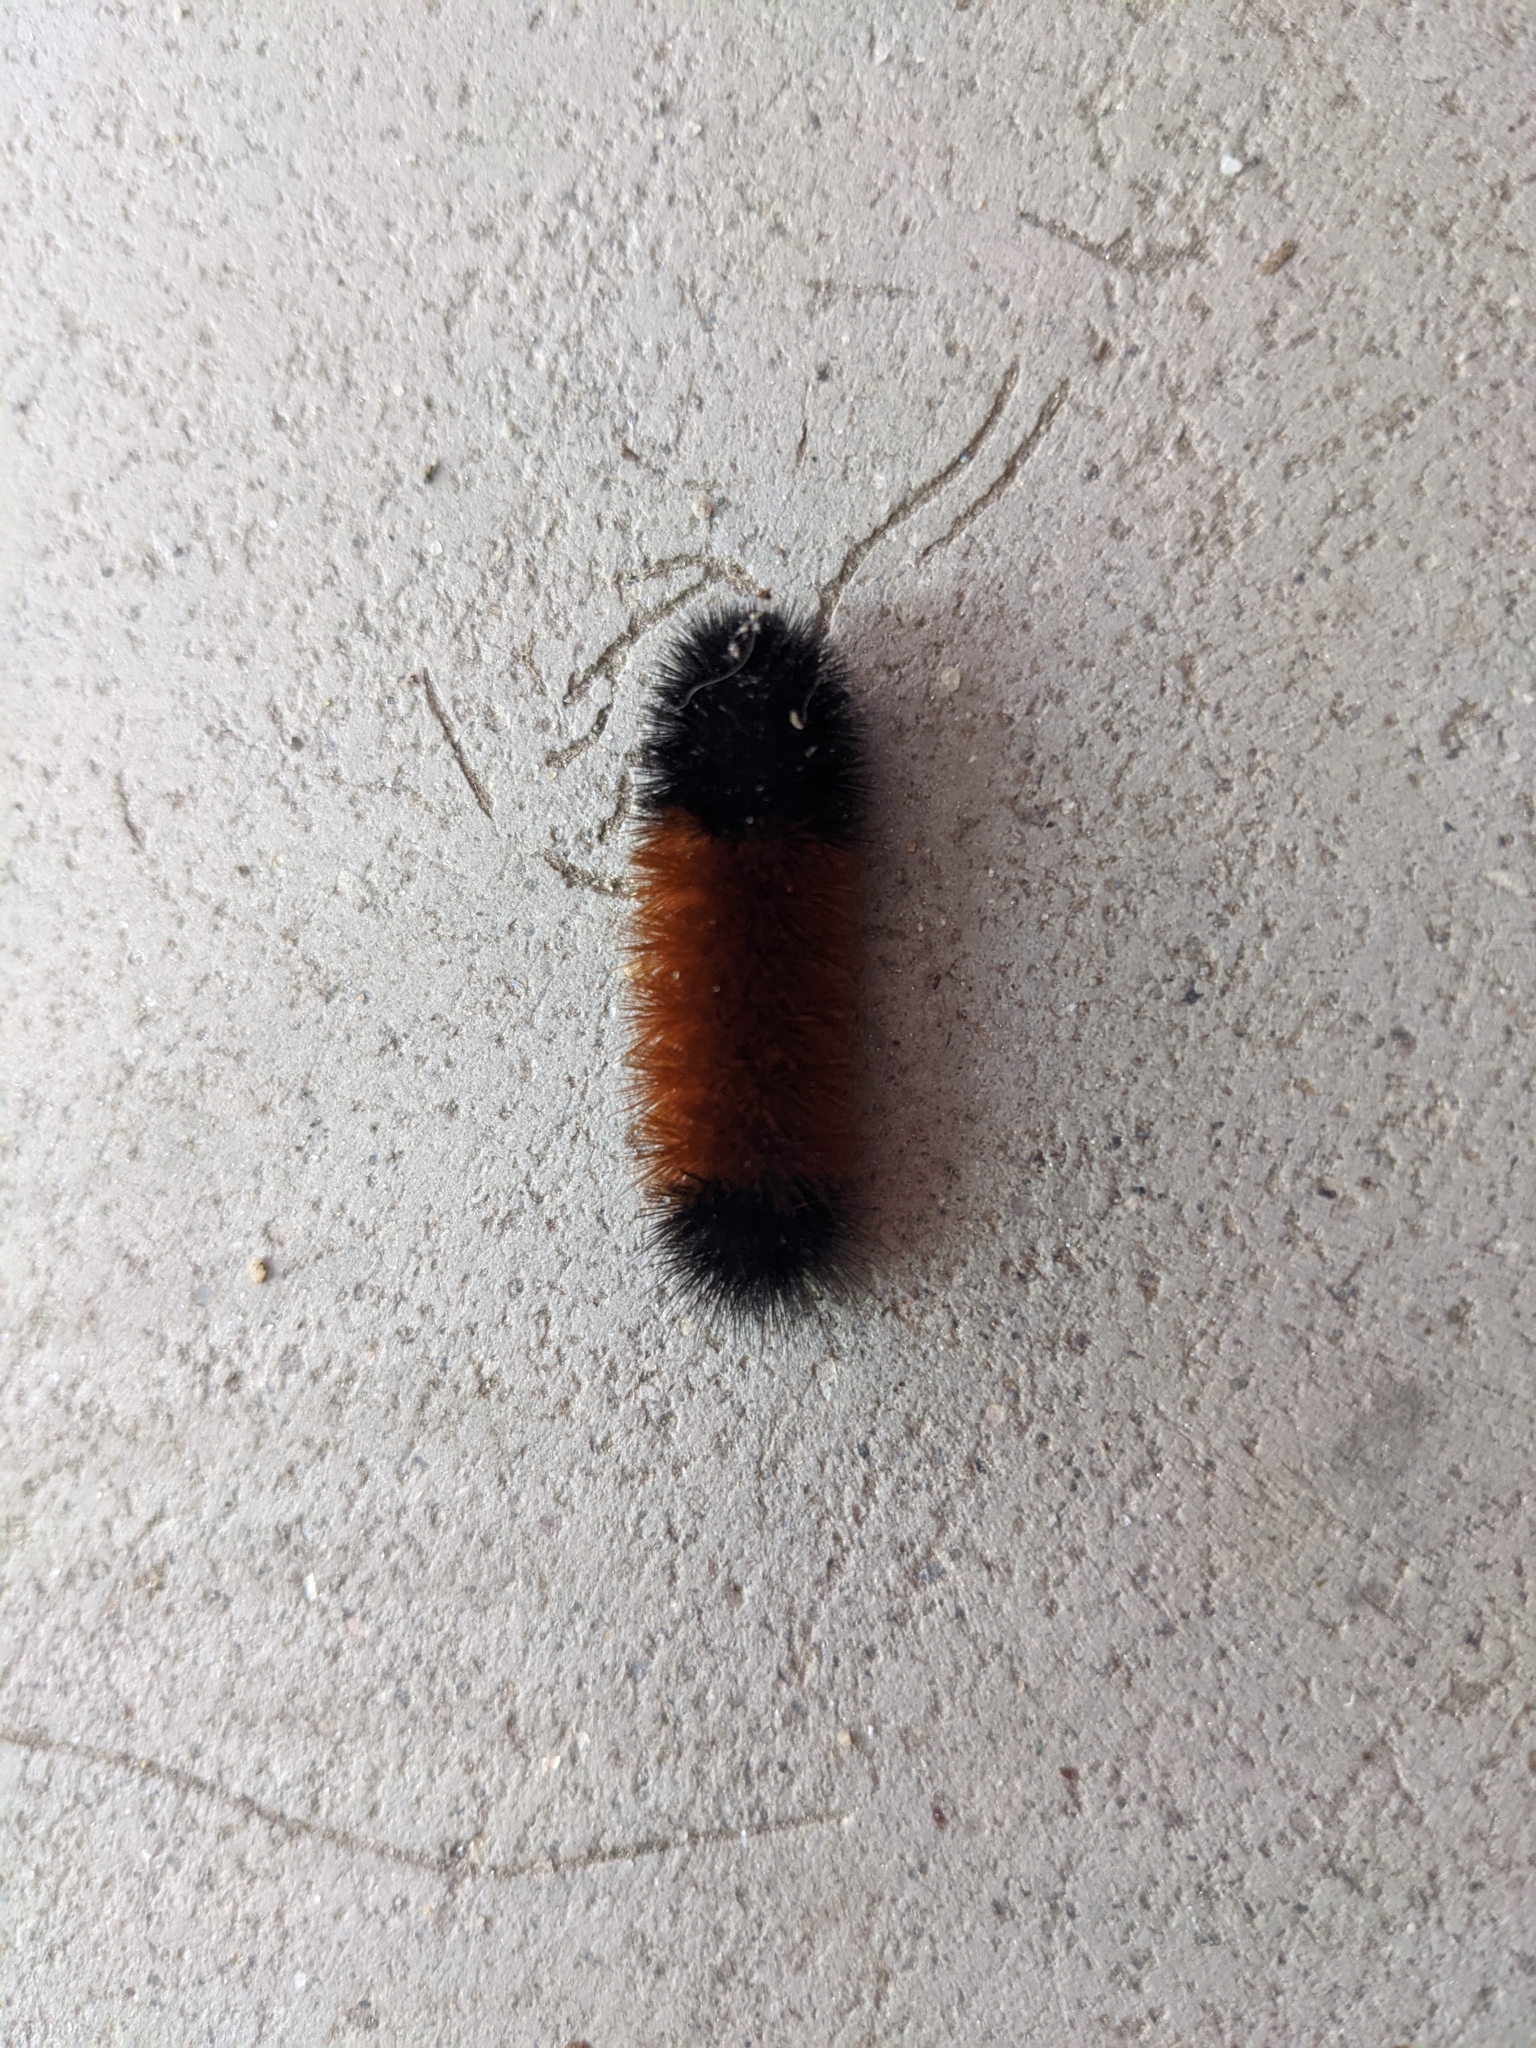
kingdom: Animalia
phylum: Arthropoda
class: Insecta
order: Lepidoptera
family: Erebidae
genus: Pyrrharctia
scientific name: Pyrrharctia isabella
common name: Isabella tiger moth
